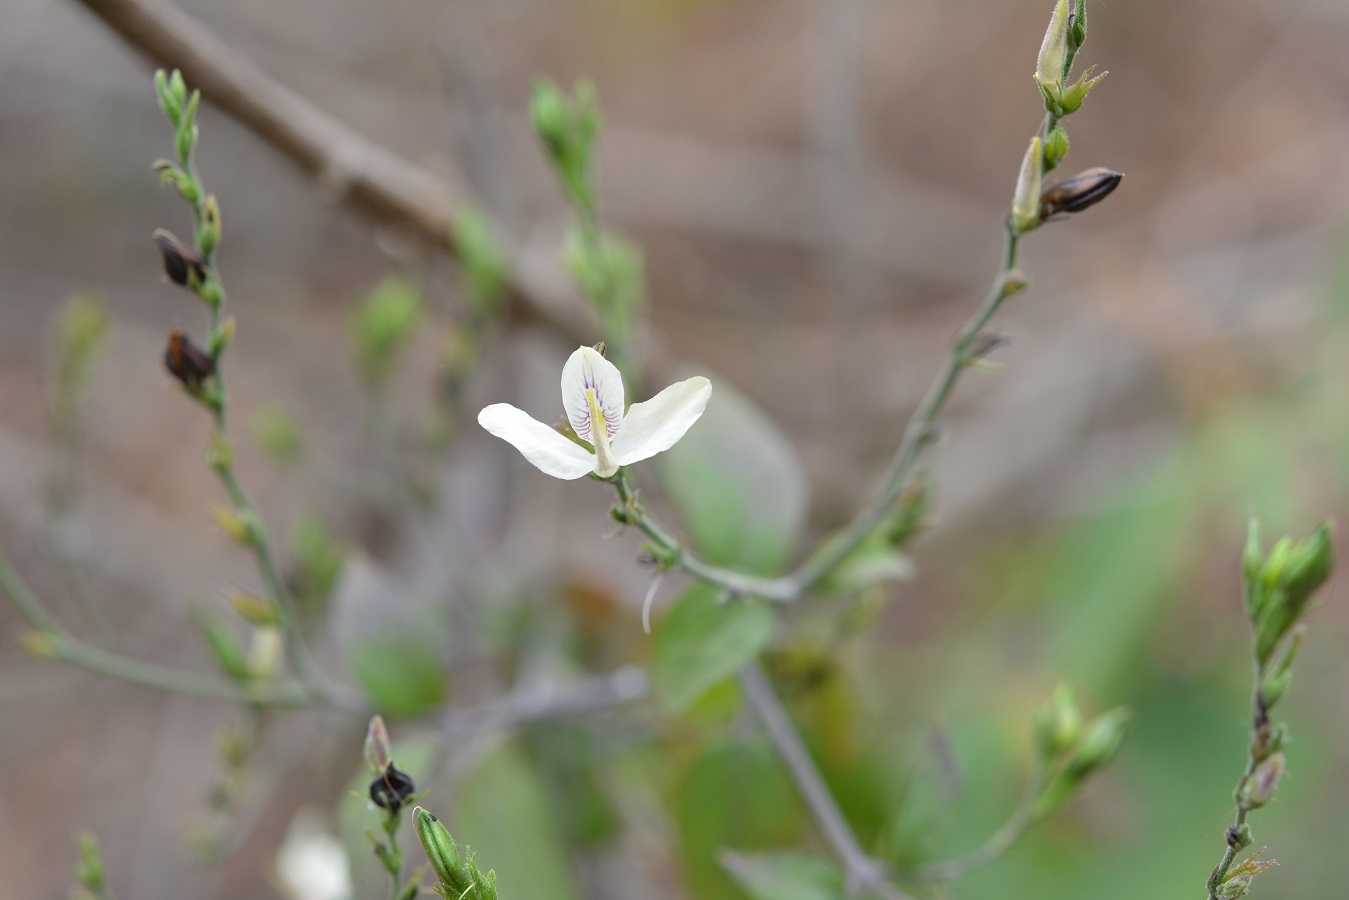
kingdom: Plantae
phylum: Tracheophyta
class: Magnoliopsida
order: Lamiales
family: Acanthaceae
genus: Carlowrightia
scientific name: Carlowrightia arizonica
